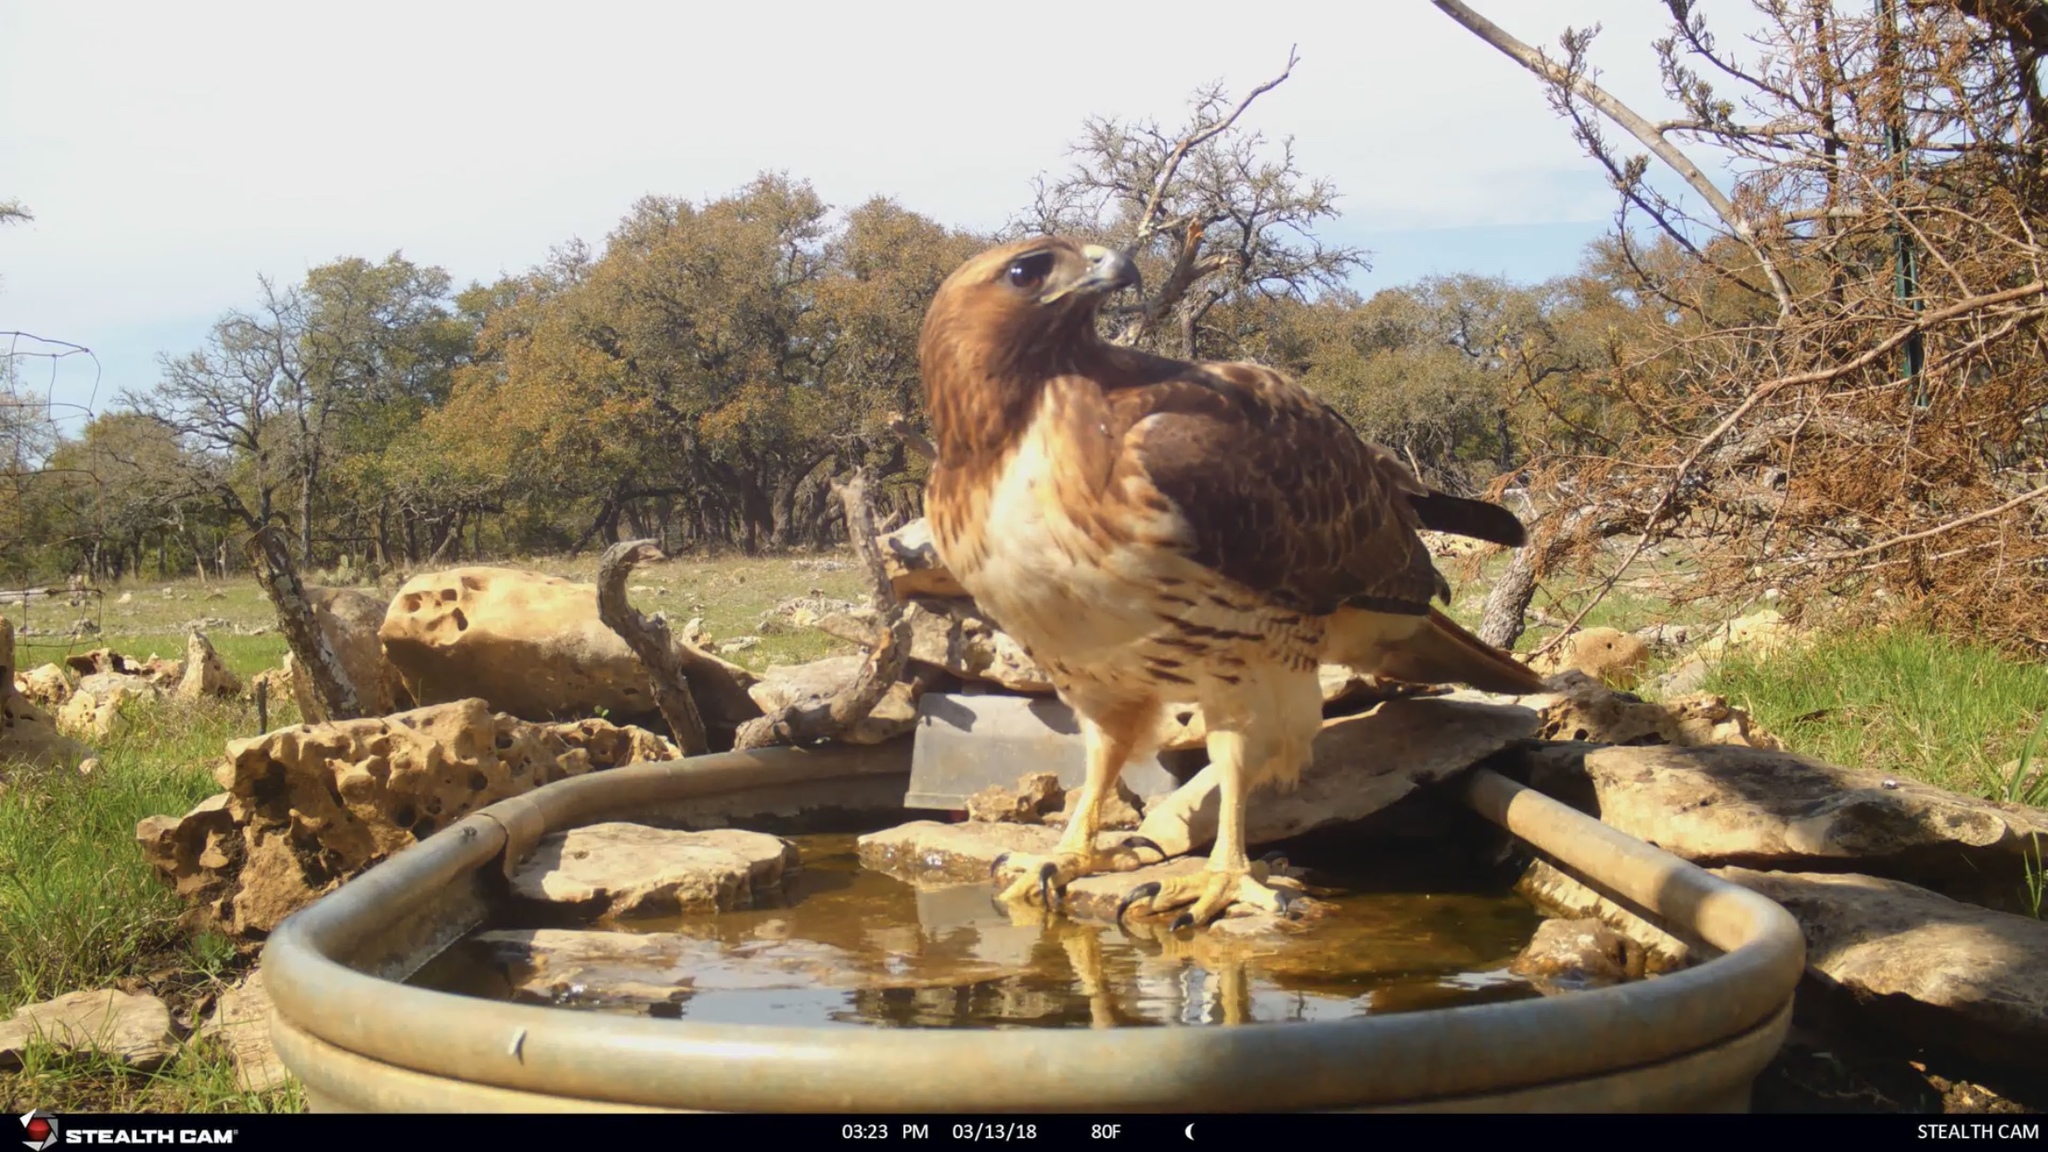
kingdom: Animalia
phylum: Chordata
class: Aves
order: Accipitriformes
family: Accipitridae
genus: Buteo
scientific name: Buteo jamaicensis
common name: Red-tailed hawk
